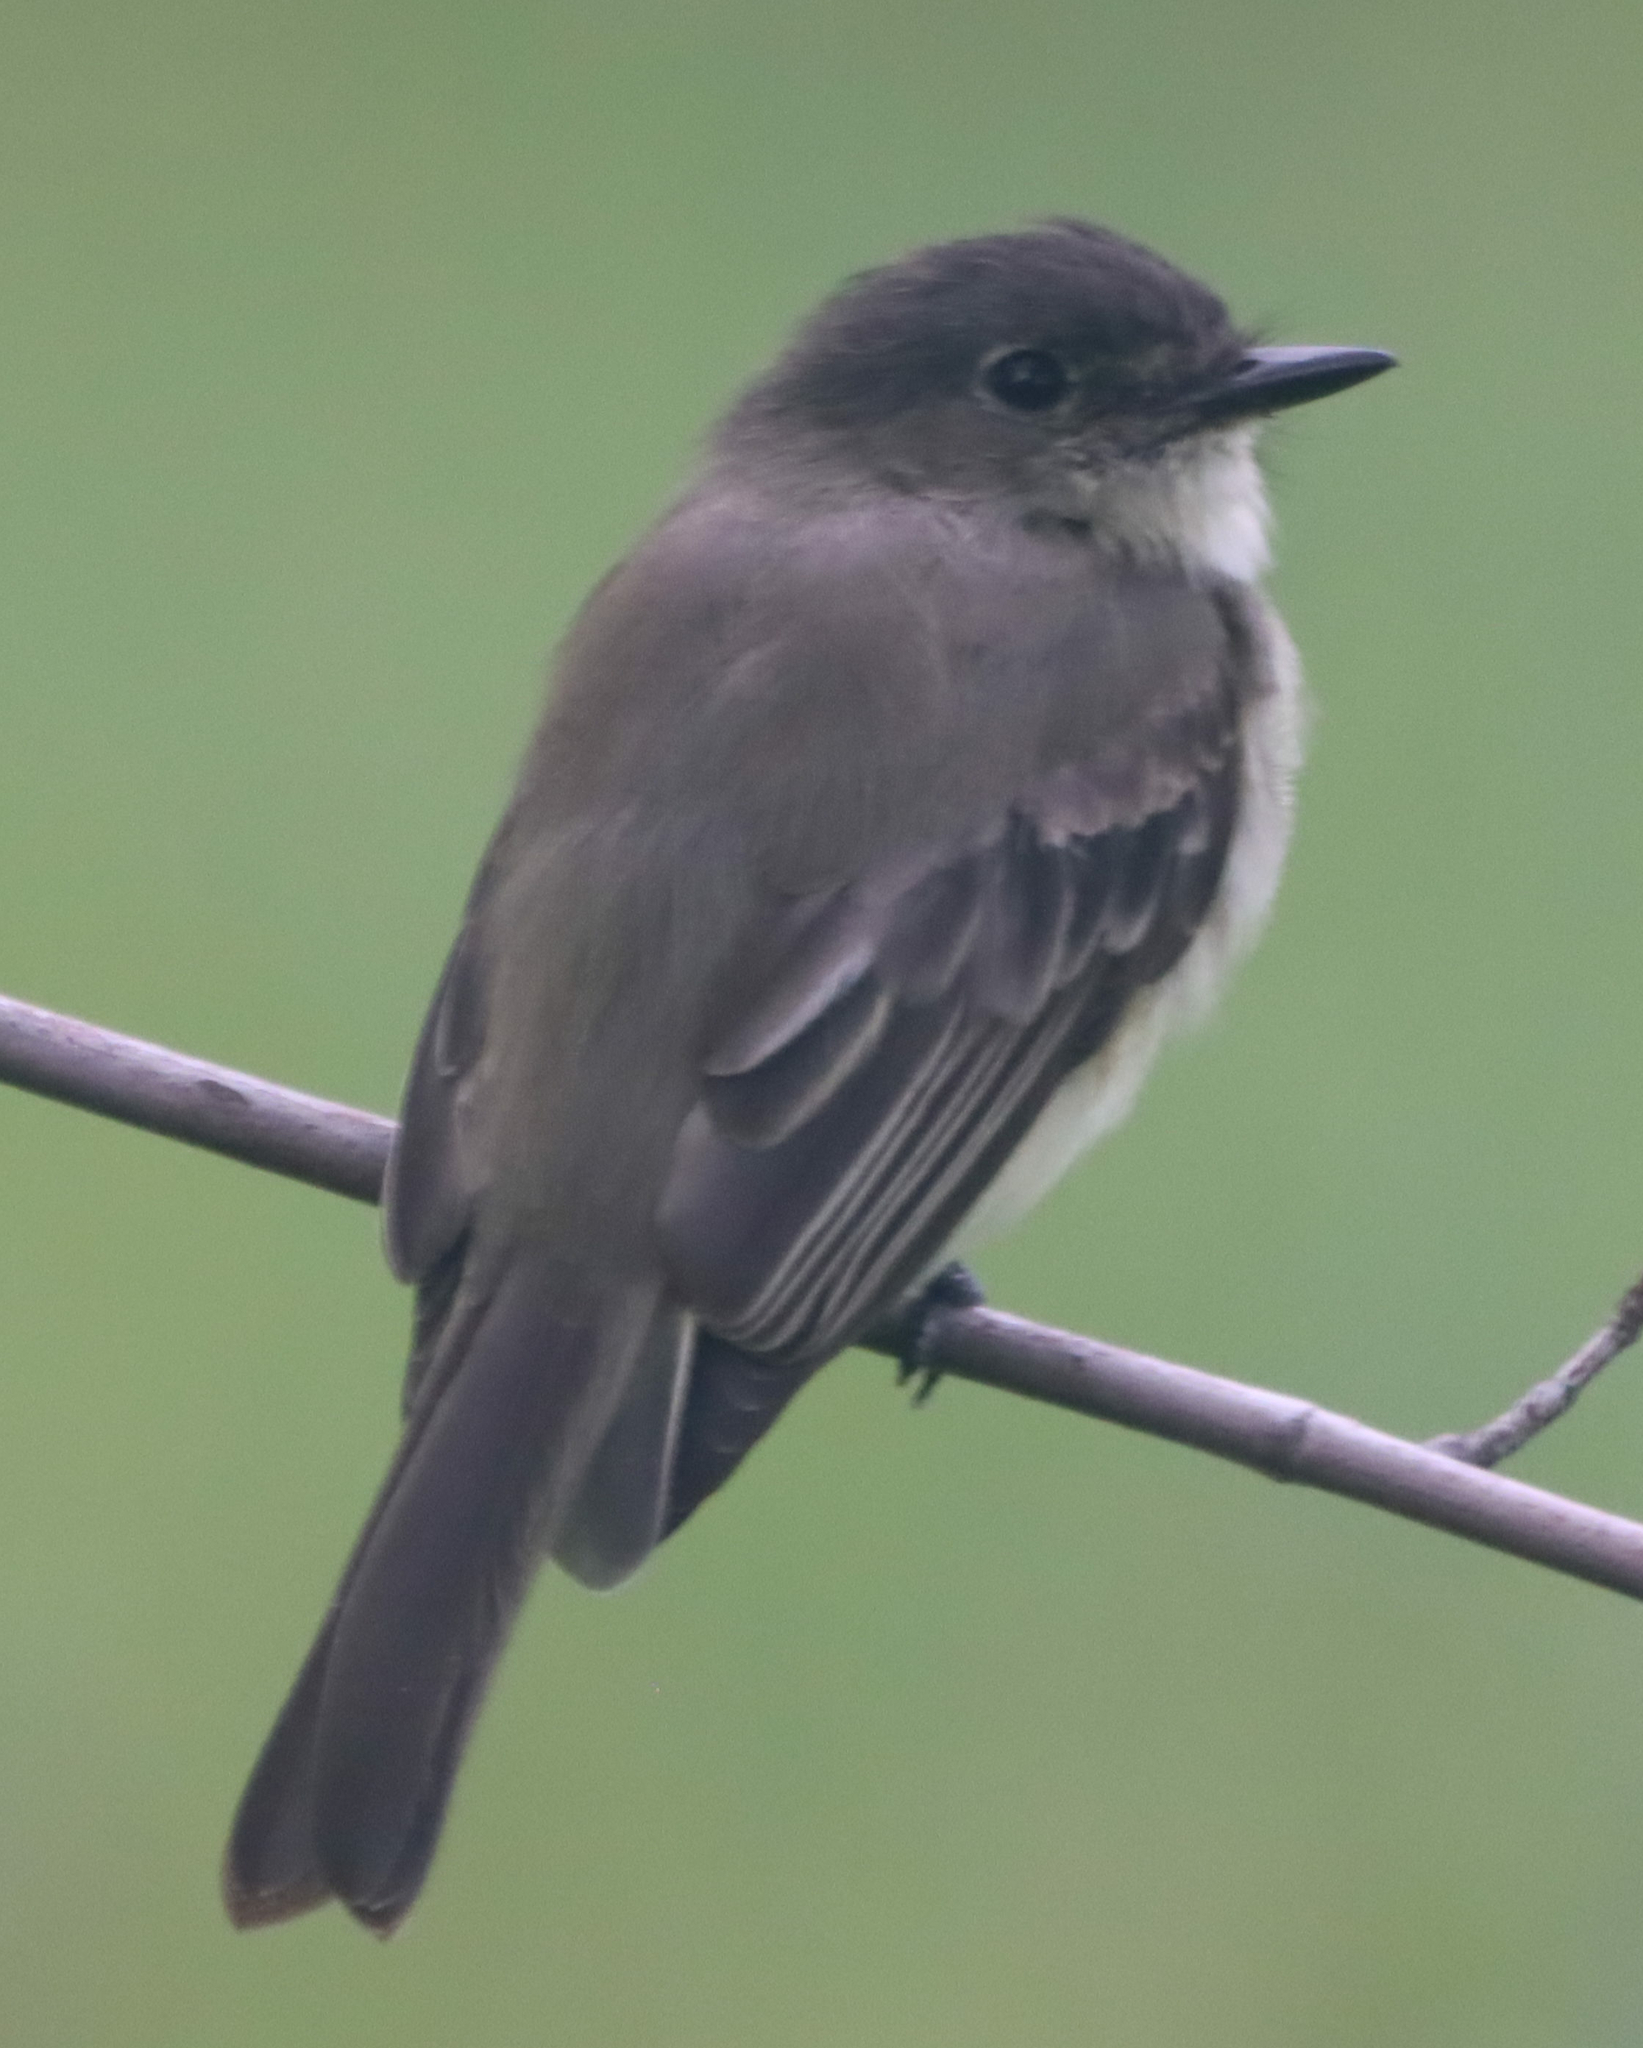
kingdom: Animalia
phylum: Chordata
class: Aves
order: Passeriformes
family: Tyrannidae
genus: Sayornis
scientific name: Sayornis phoebe
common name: Eastern phoebe
